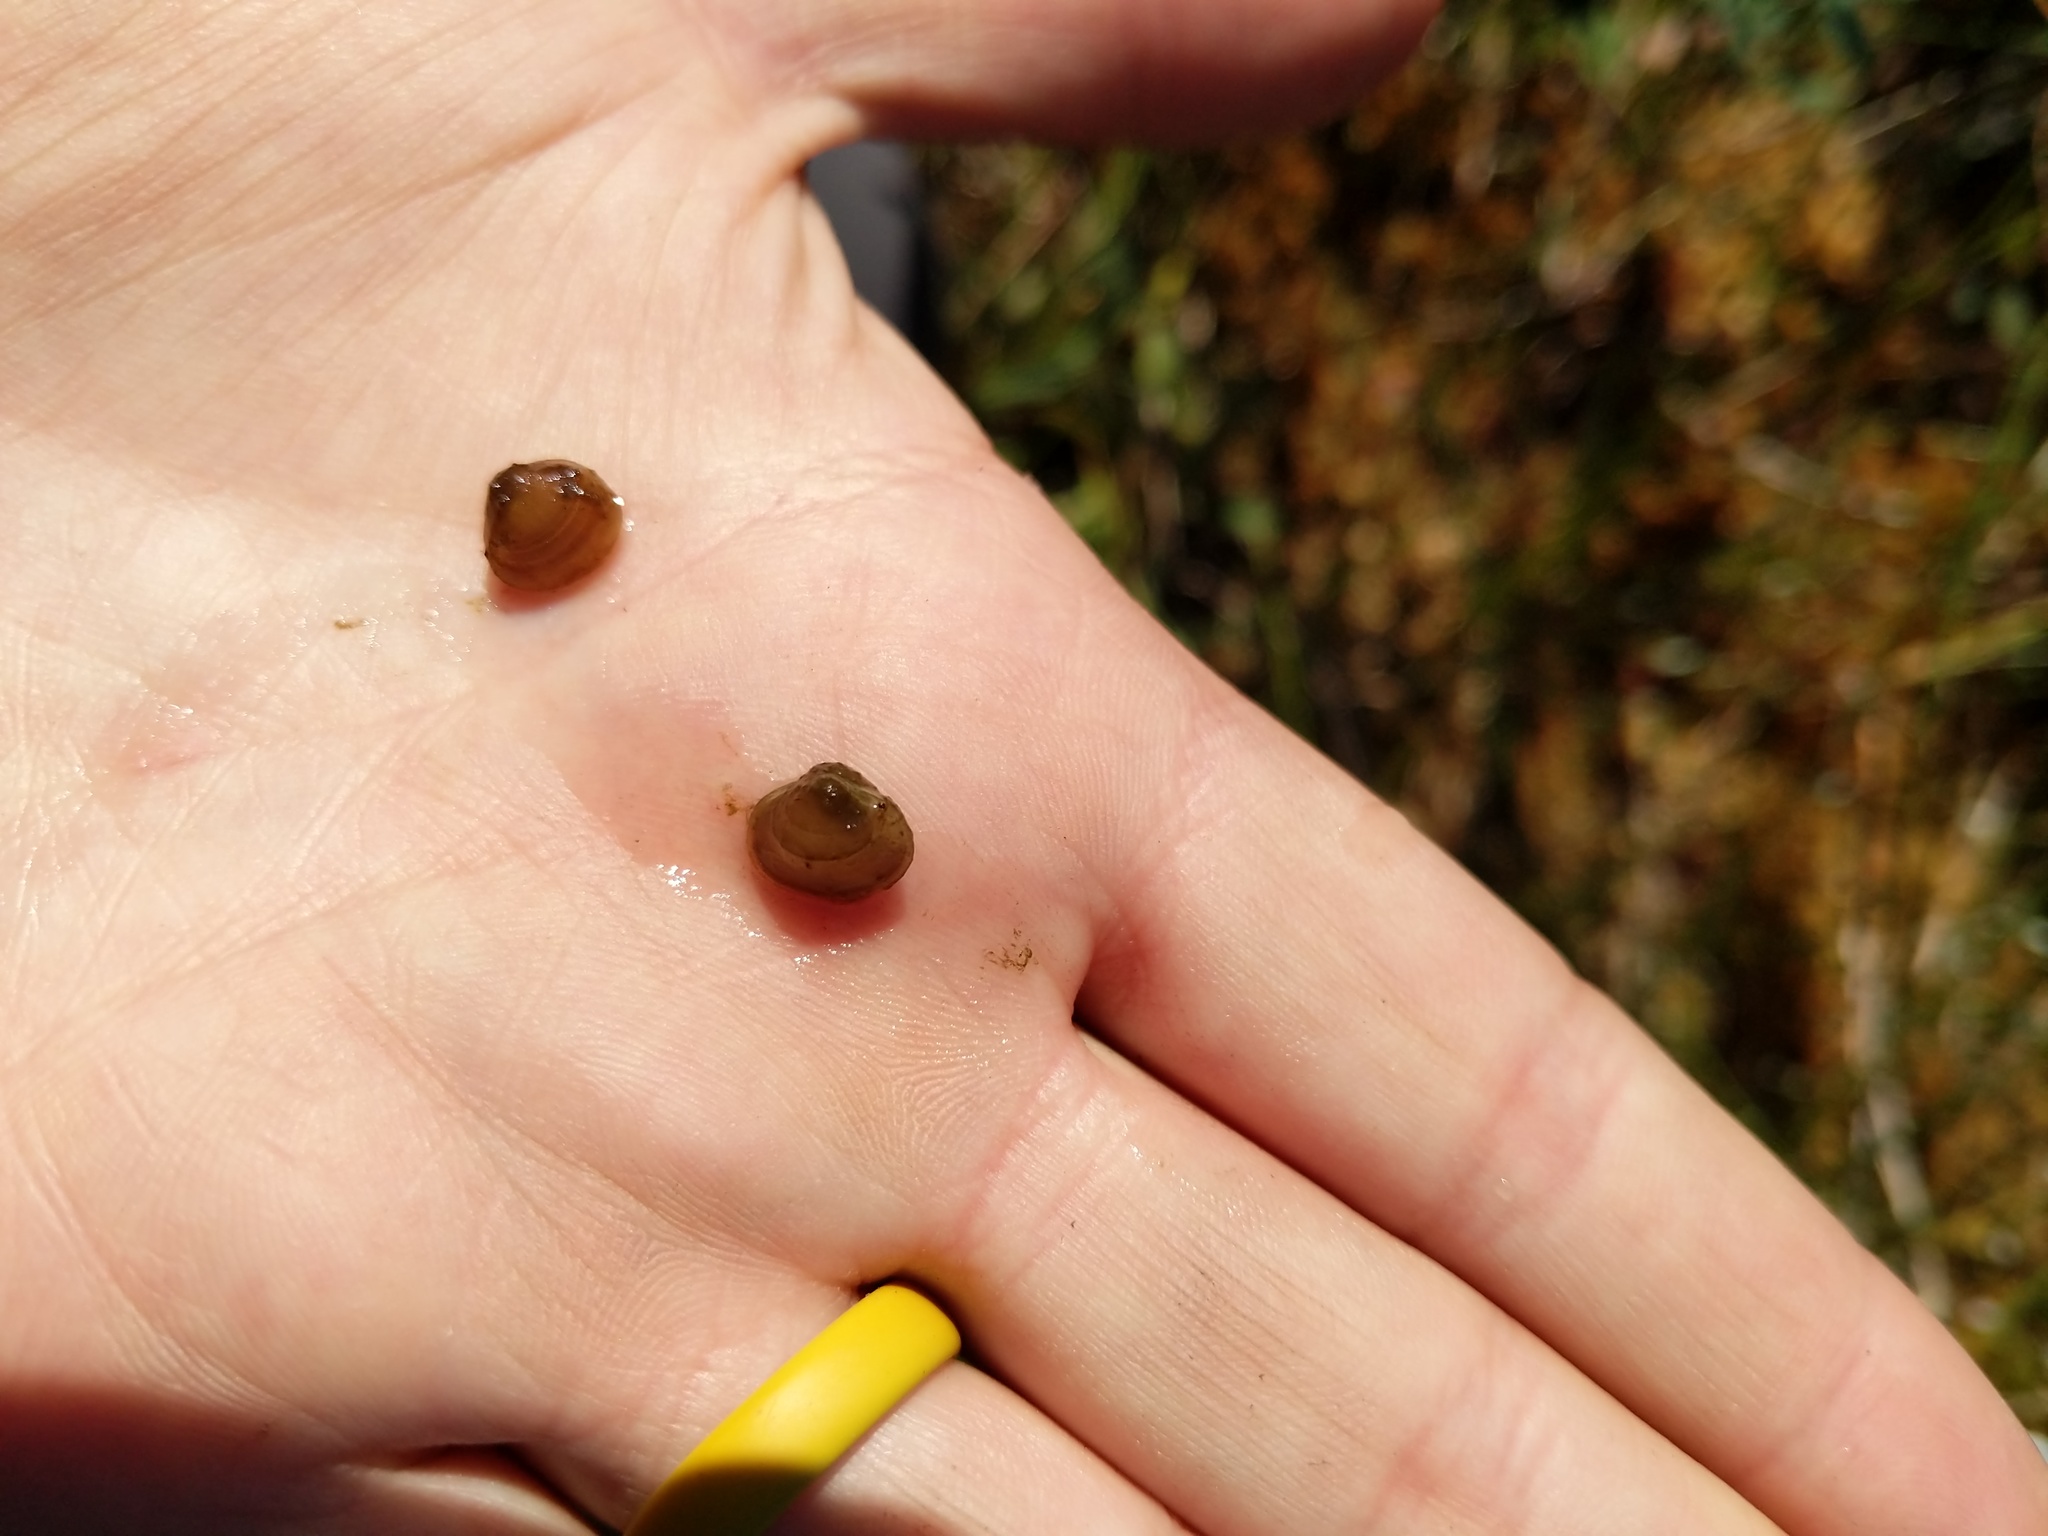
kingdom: Animalia
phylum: Mollusca
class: Bivalvia
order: Sphaeriida
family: Sphaeriidae
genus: Euglesa
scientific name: Euglesa variabilis
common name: Triangular peaclam
